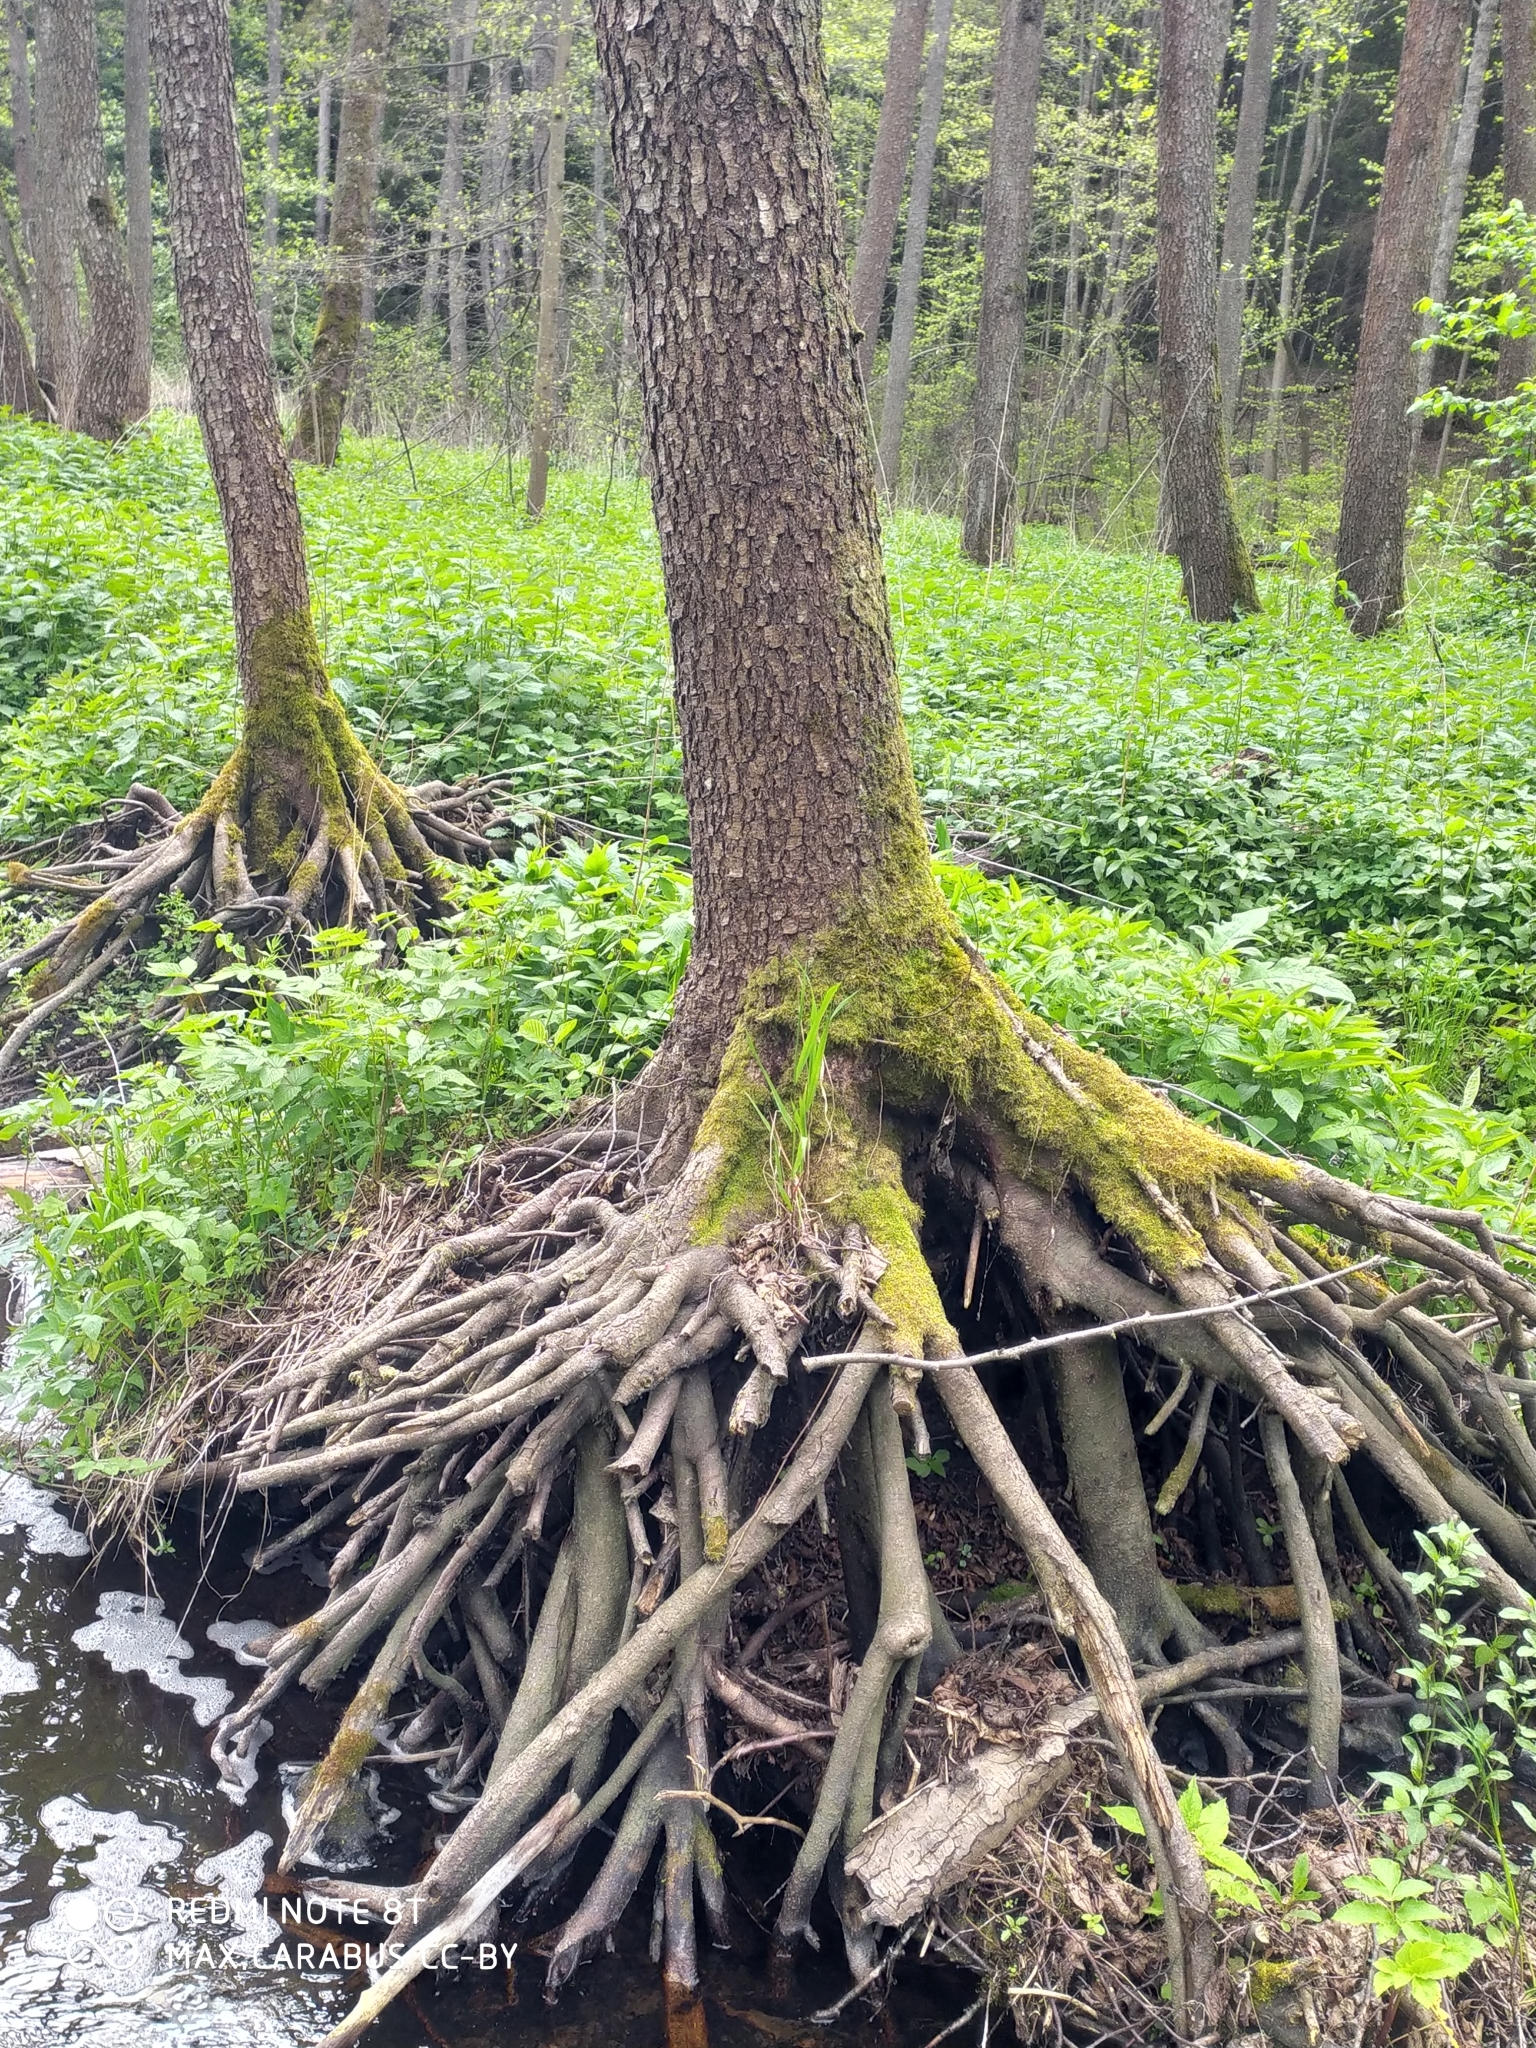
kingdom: Plantae
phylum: Tracheophyta
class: Magnoliopsida
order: Fagales
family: Betulaceae
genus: Alnus
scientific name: Alnus glutinosa
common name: Black alder
